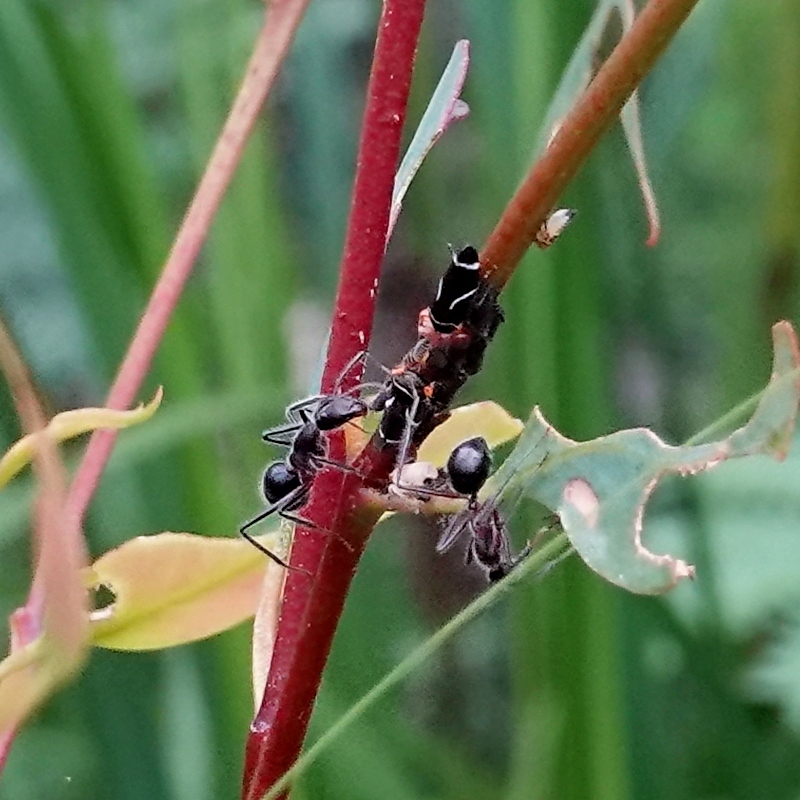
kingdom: Animalia
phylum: Arthropoda
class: Insecta
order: Hemiptera
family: Cicadellidae
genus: Eurymeloides
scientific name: Eurymeloides punctata
